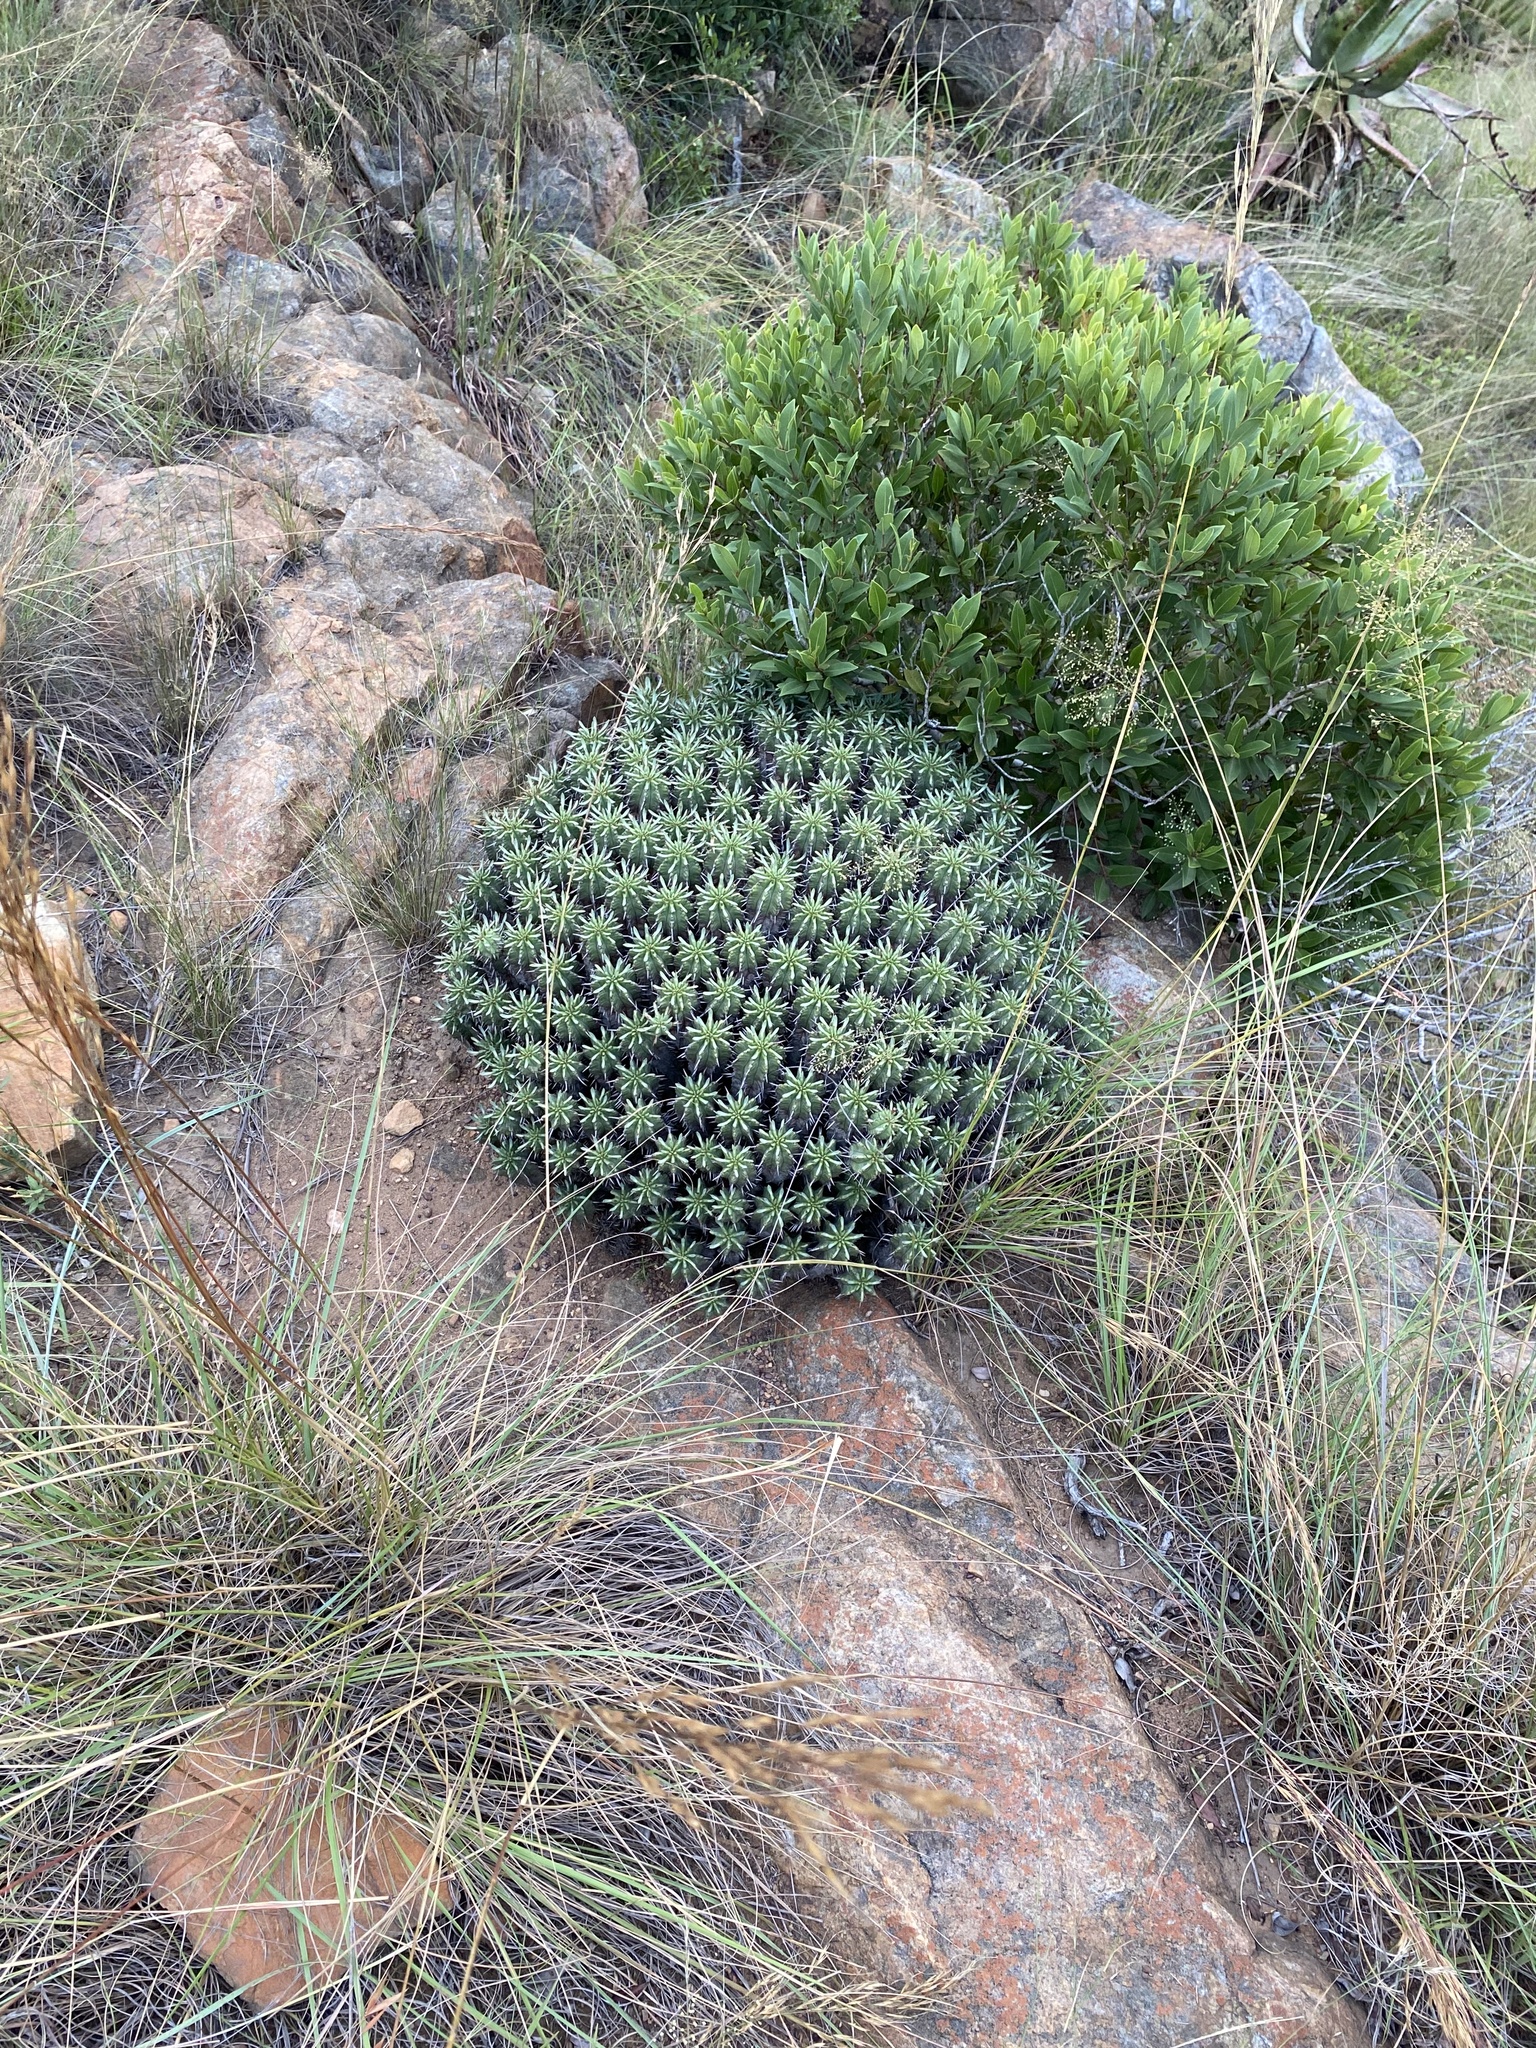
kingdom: Plantae
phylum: Tracheophyta
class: Magnoliopsida
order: Malpighiales
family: Euphorbiaceae
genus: Euphorbia
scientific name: Euphorbia pulvinata
